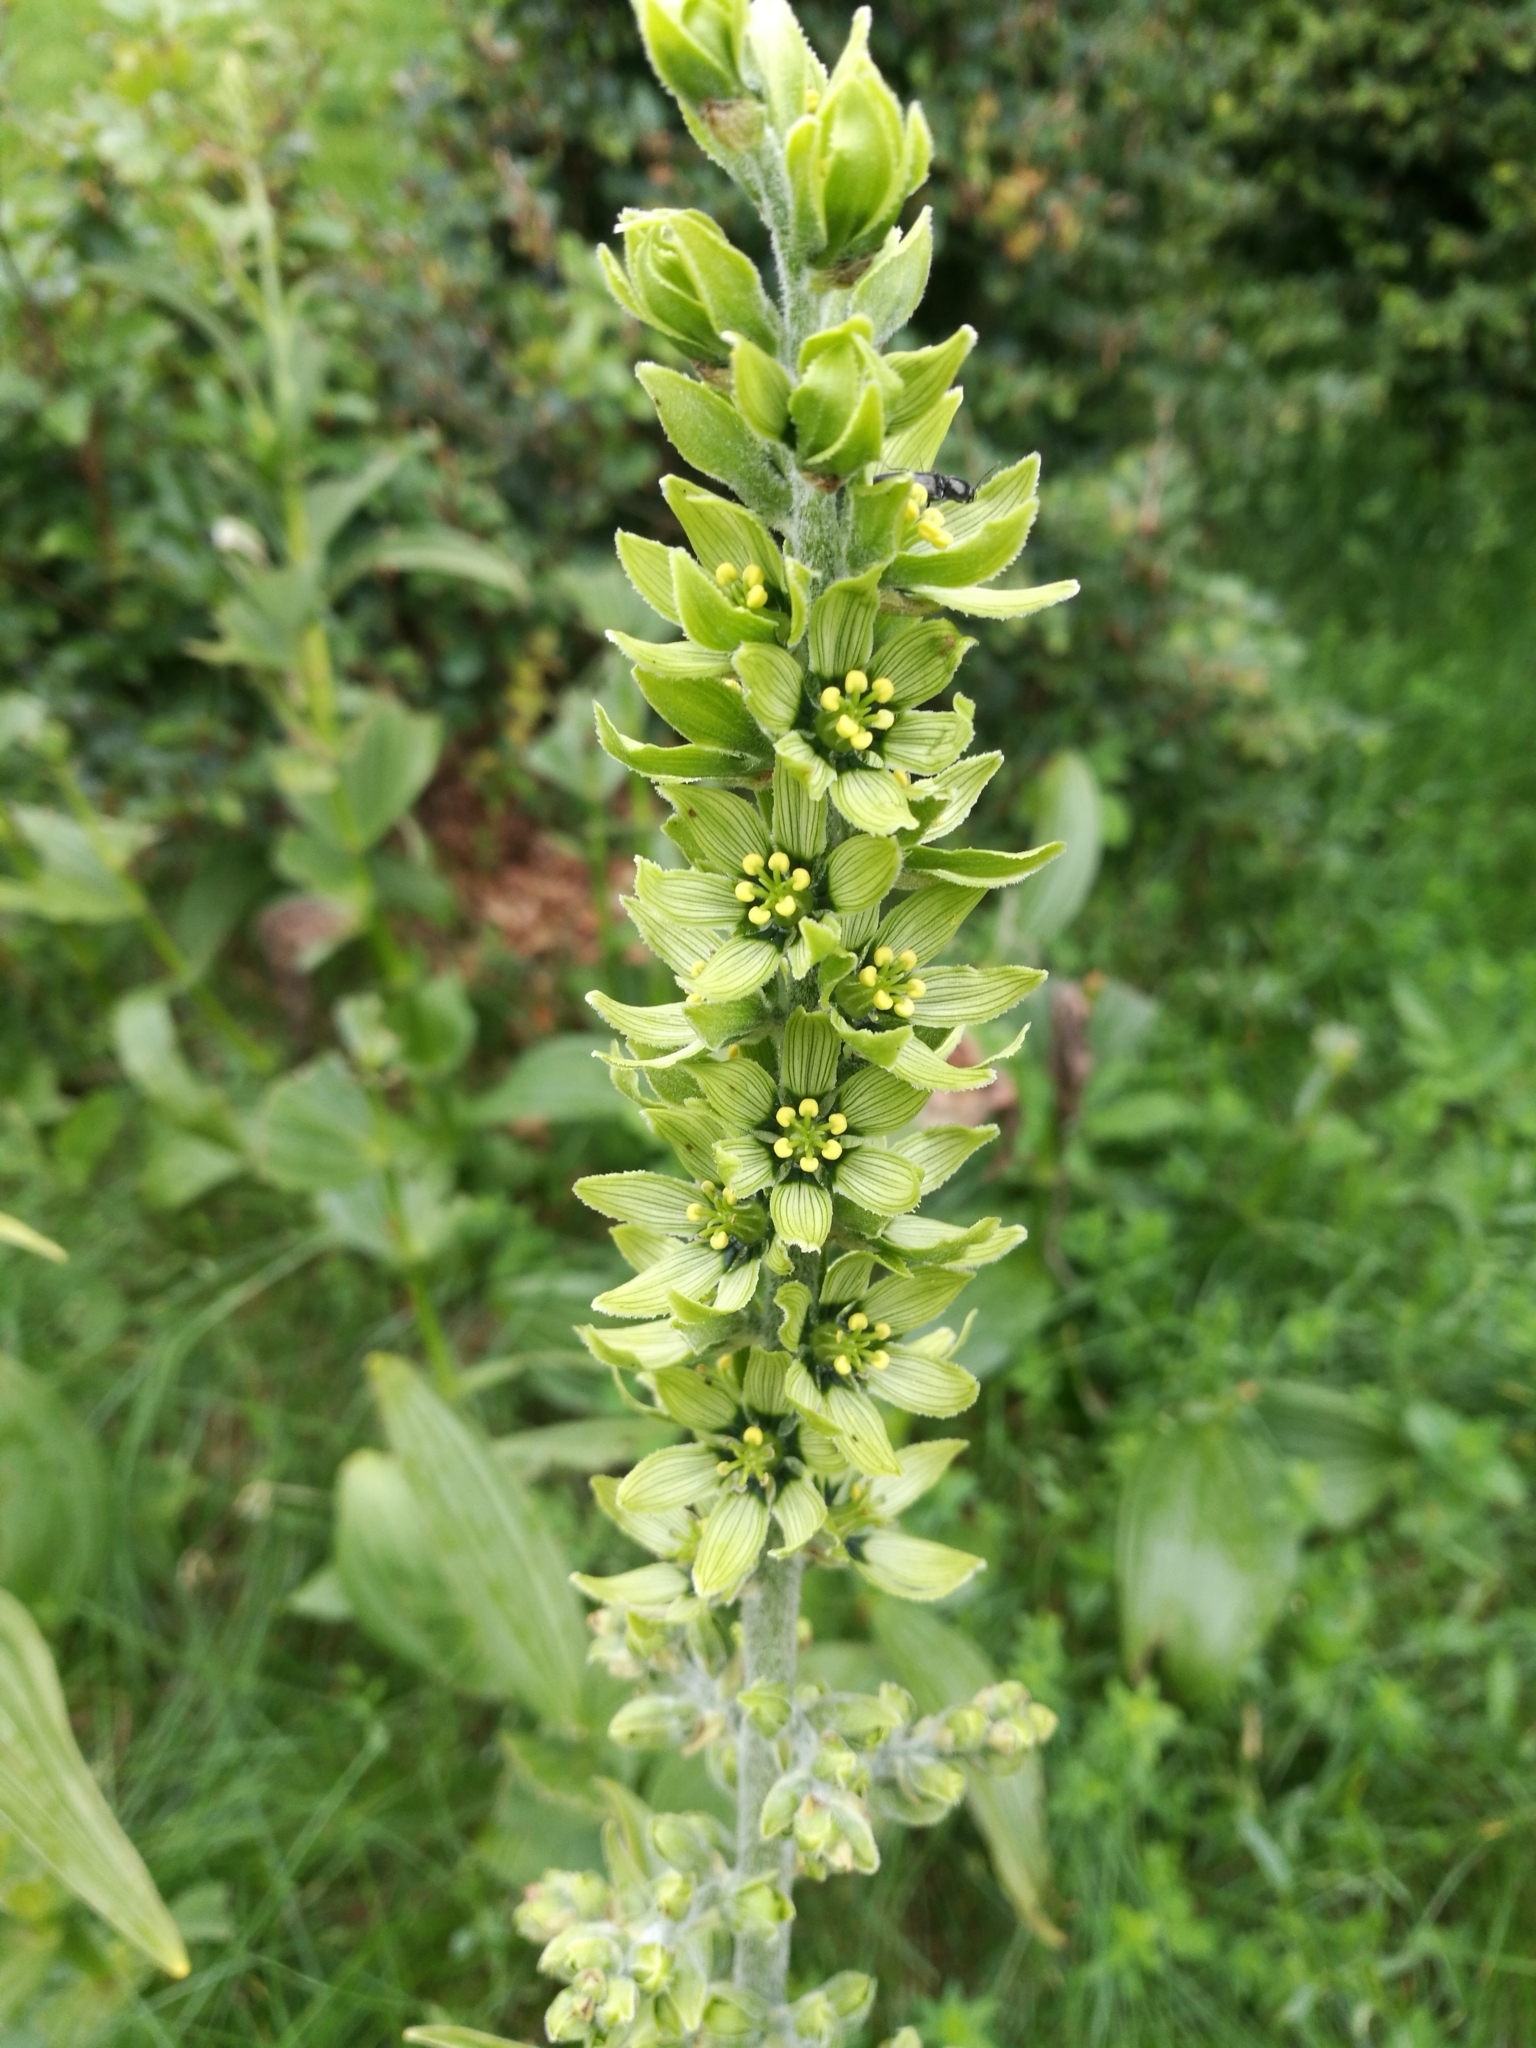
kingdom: Plantae
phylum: Tracheophyta
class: Liliopsida
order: Liliales
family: Melanthiaceae
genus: Veratrum
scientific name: Veratrum album
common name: White veratrum
